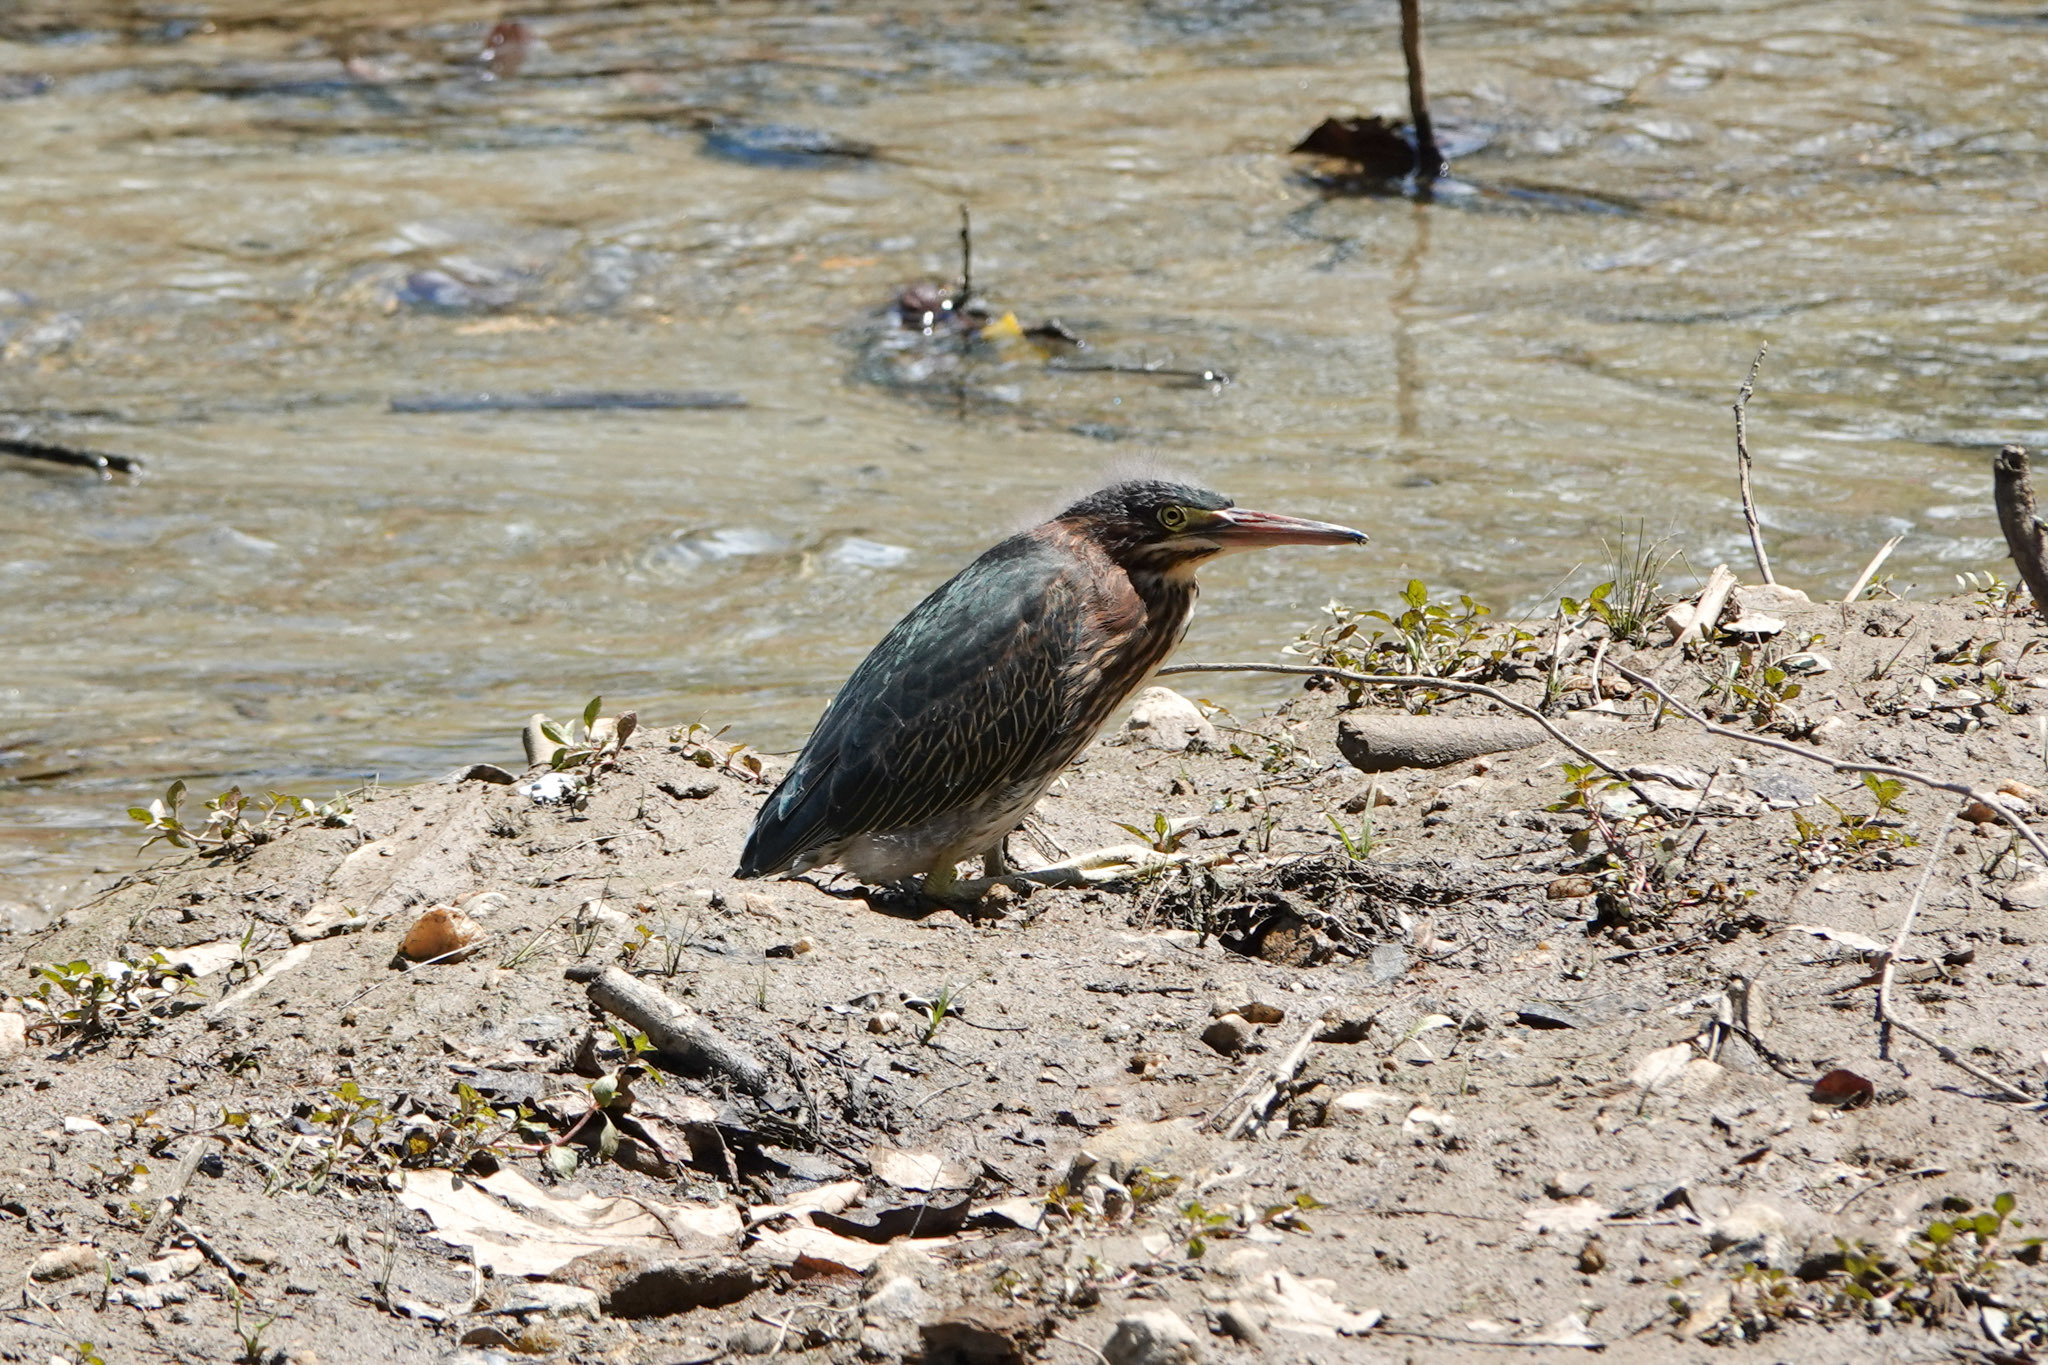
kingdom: Animalia
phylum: Chordata
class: Aves
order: Pelecaniformes
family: Ardeidae
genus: Butorides
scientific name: Butorides virescens
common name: Green heron
